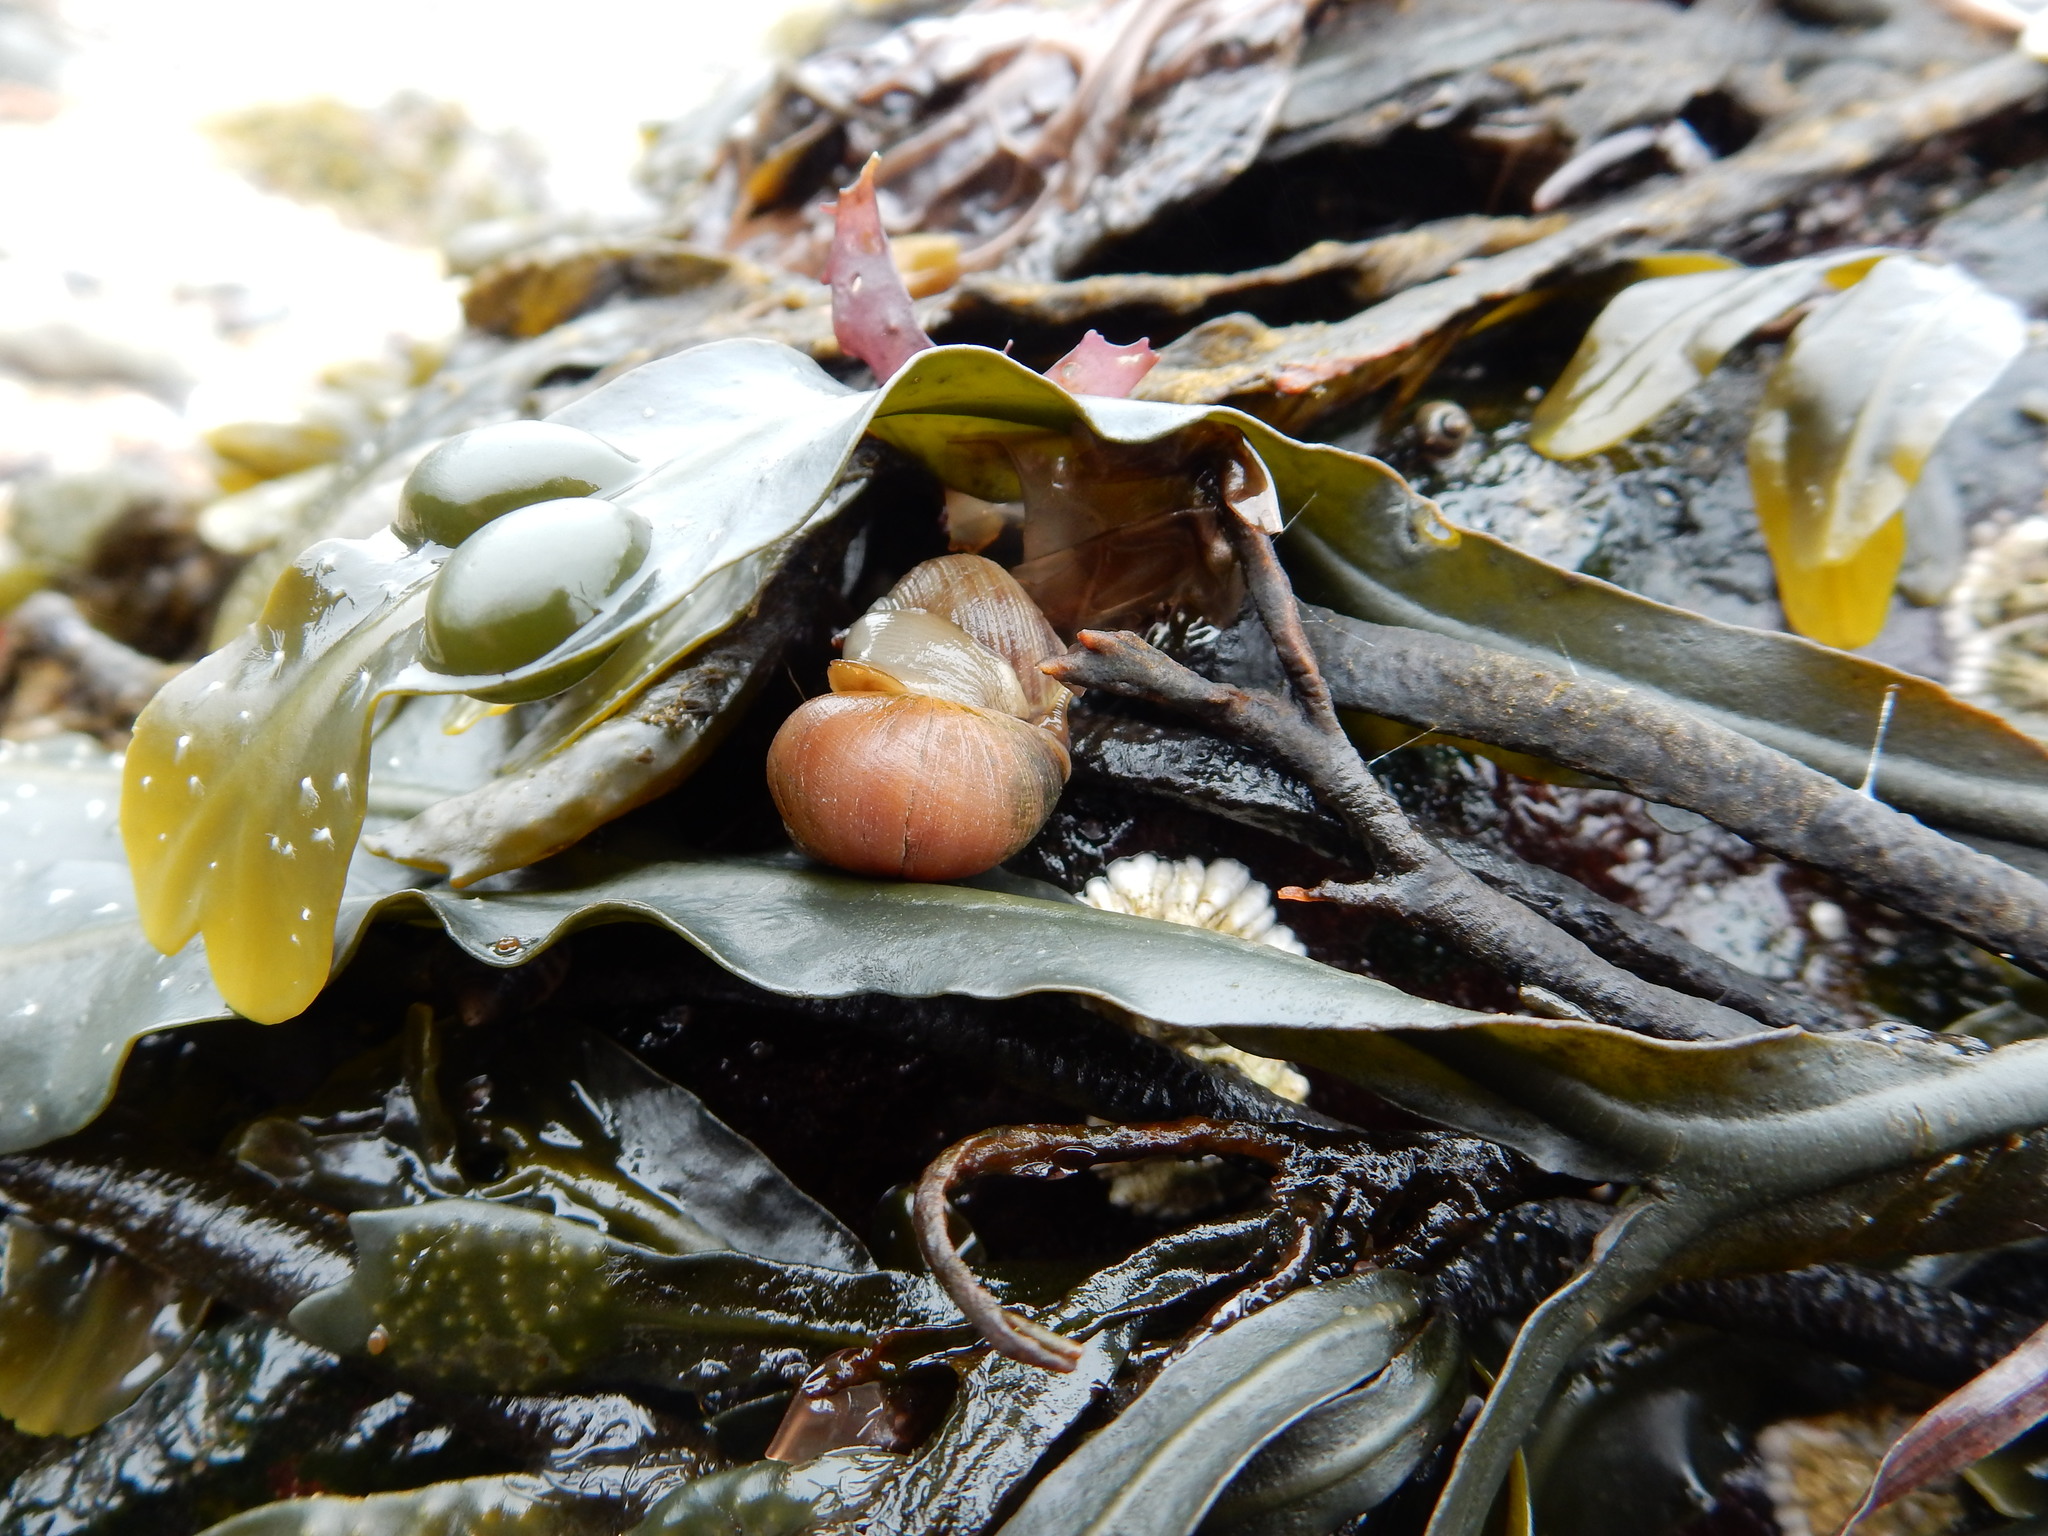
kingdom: Animalia
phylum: Mollusca
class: Gastropoda
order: Littorinimorpha
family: Littorinidae
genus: Littorina
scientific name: Littorina obtusata
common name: Flat periwinkle
